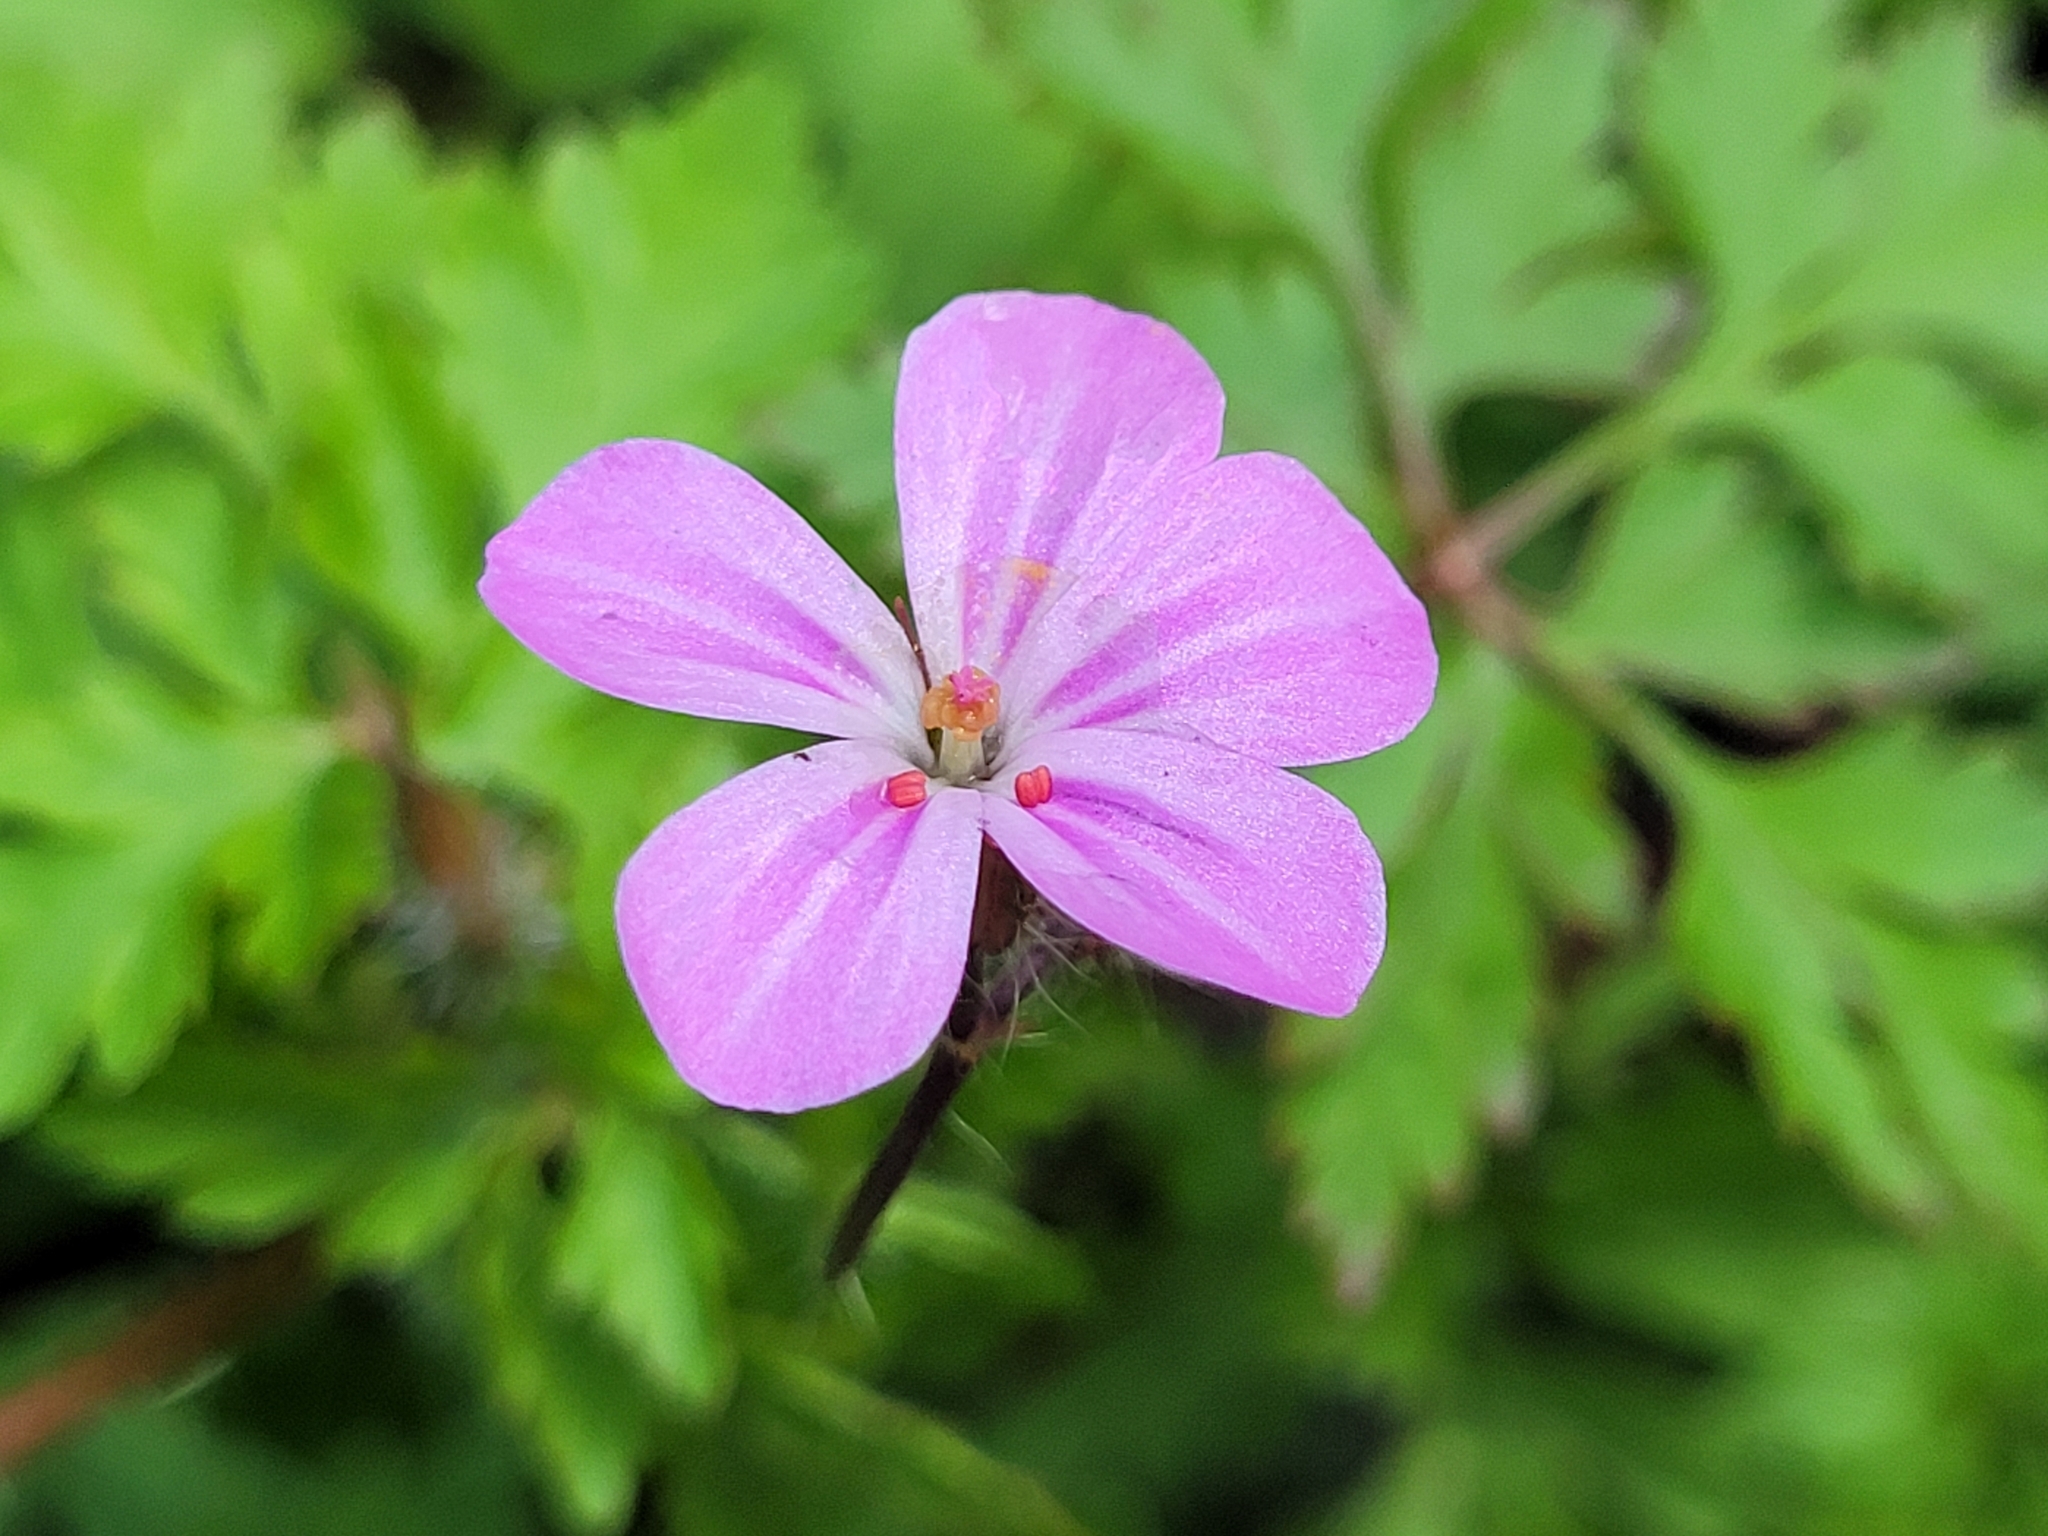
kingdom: Plantae
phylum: Tracheophyta
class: Magnoliopsida
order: Geraniales
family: Geraniaceae
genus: Geranium
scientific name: Geranium robertianum
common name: Herb-robert
